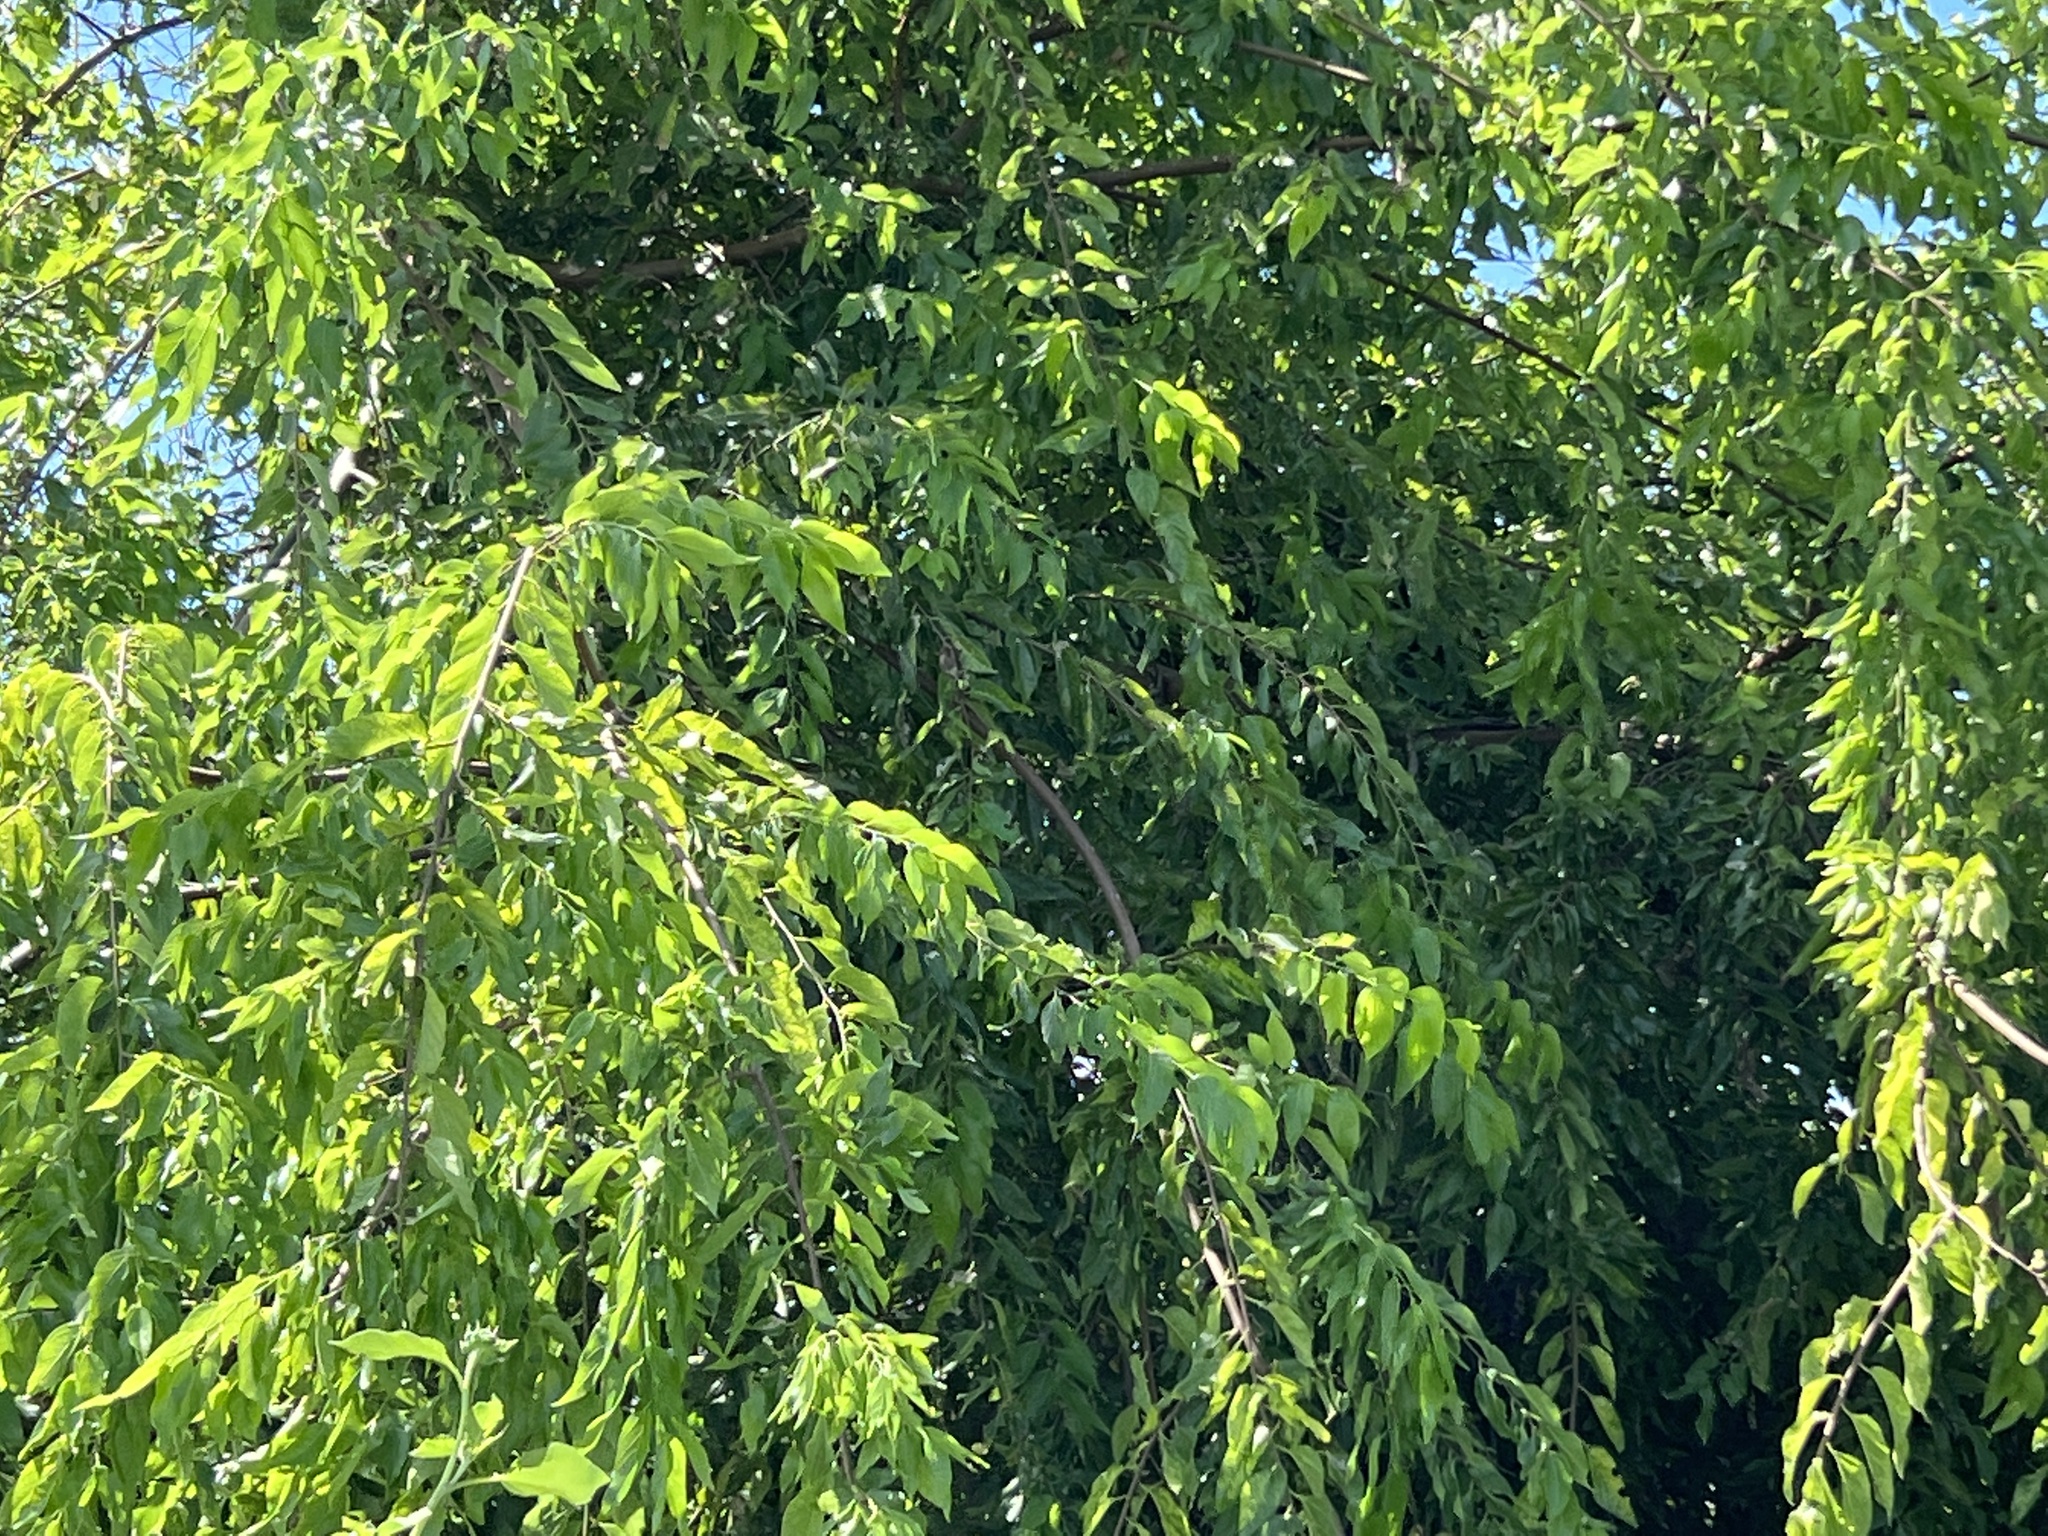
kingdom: Plantae
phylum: Tracheophyta
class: Magnoliopsida
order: Rosales
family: Cannabaceae
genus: Celtis
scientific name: Celtis laevigata
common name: Sugarberry
